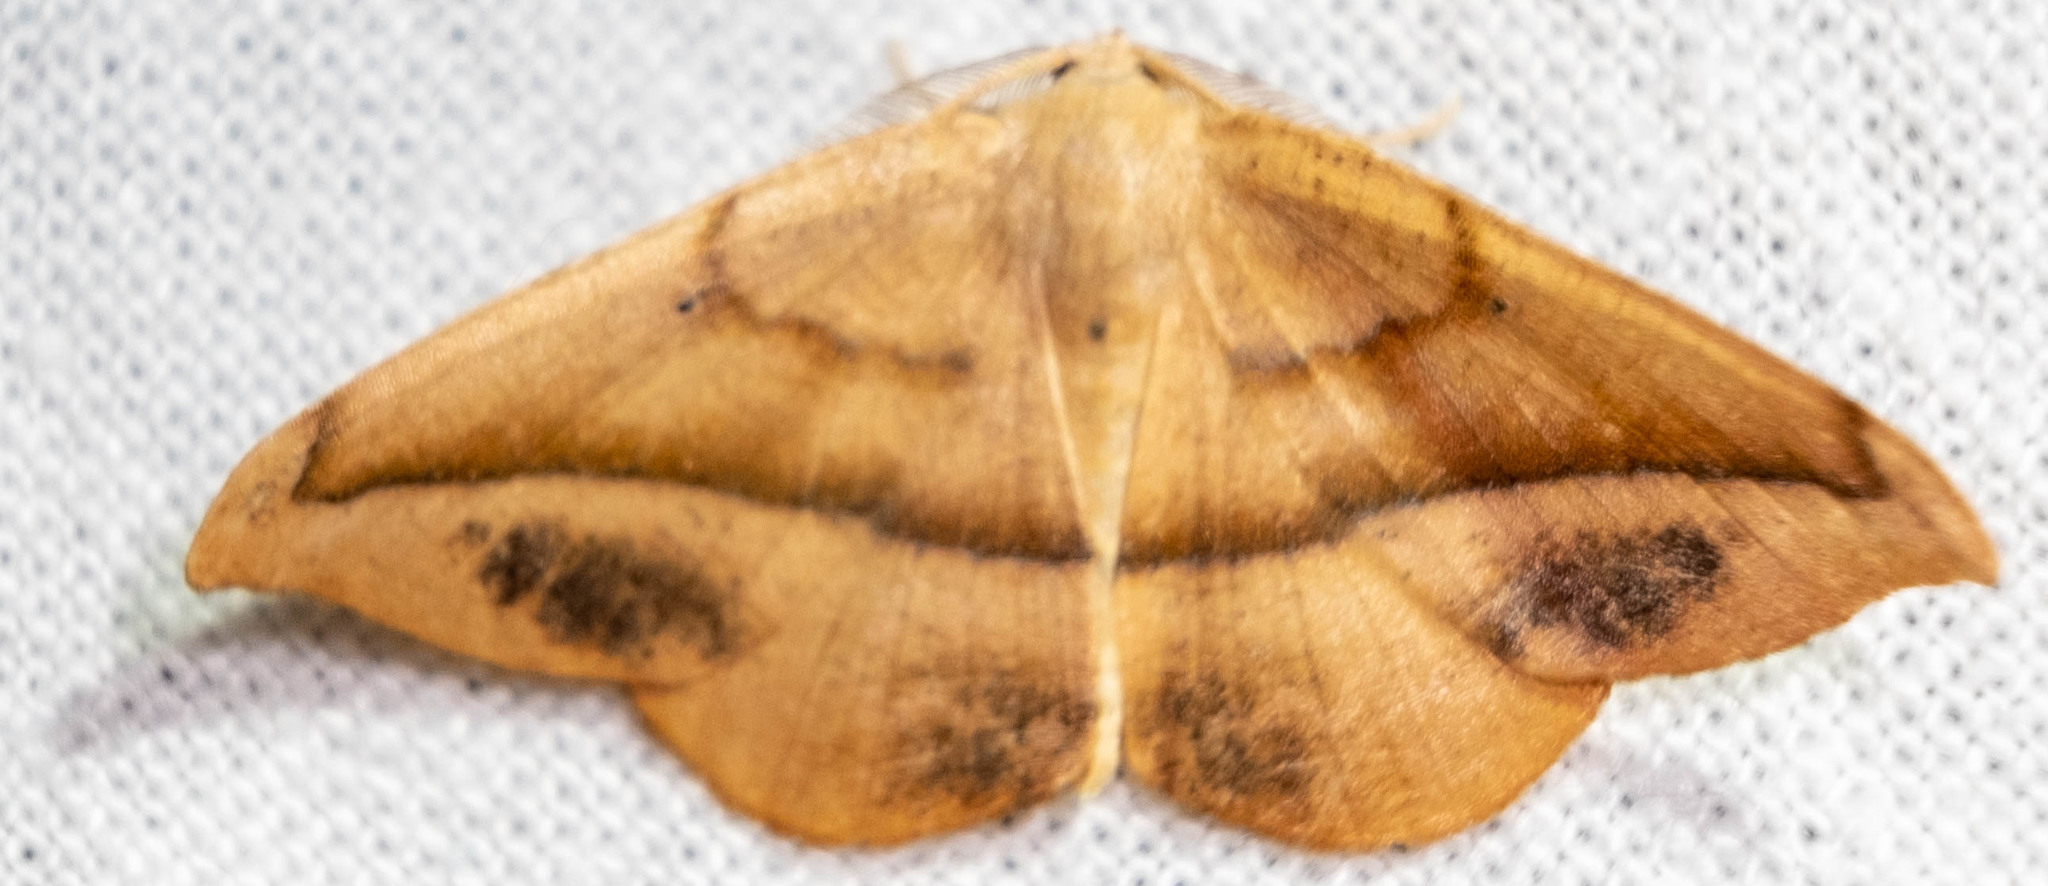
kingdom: Animalia
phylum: Arthropoda
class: Insecta
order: Lepidoptera
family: Geometridae
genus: Patalene
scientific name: Patalene olyzonaria
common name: Juniper geometer moth
